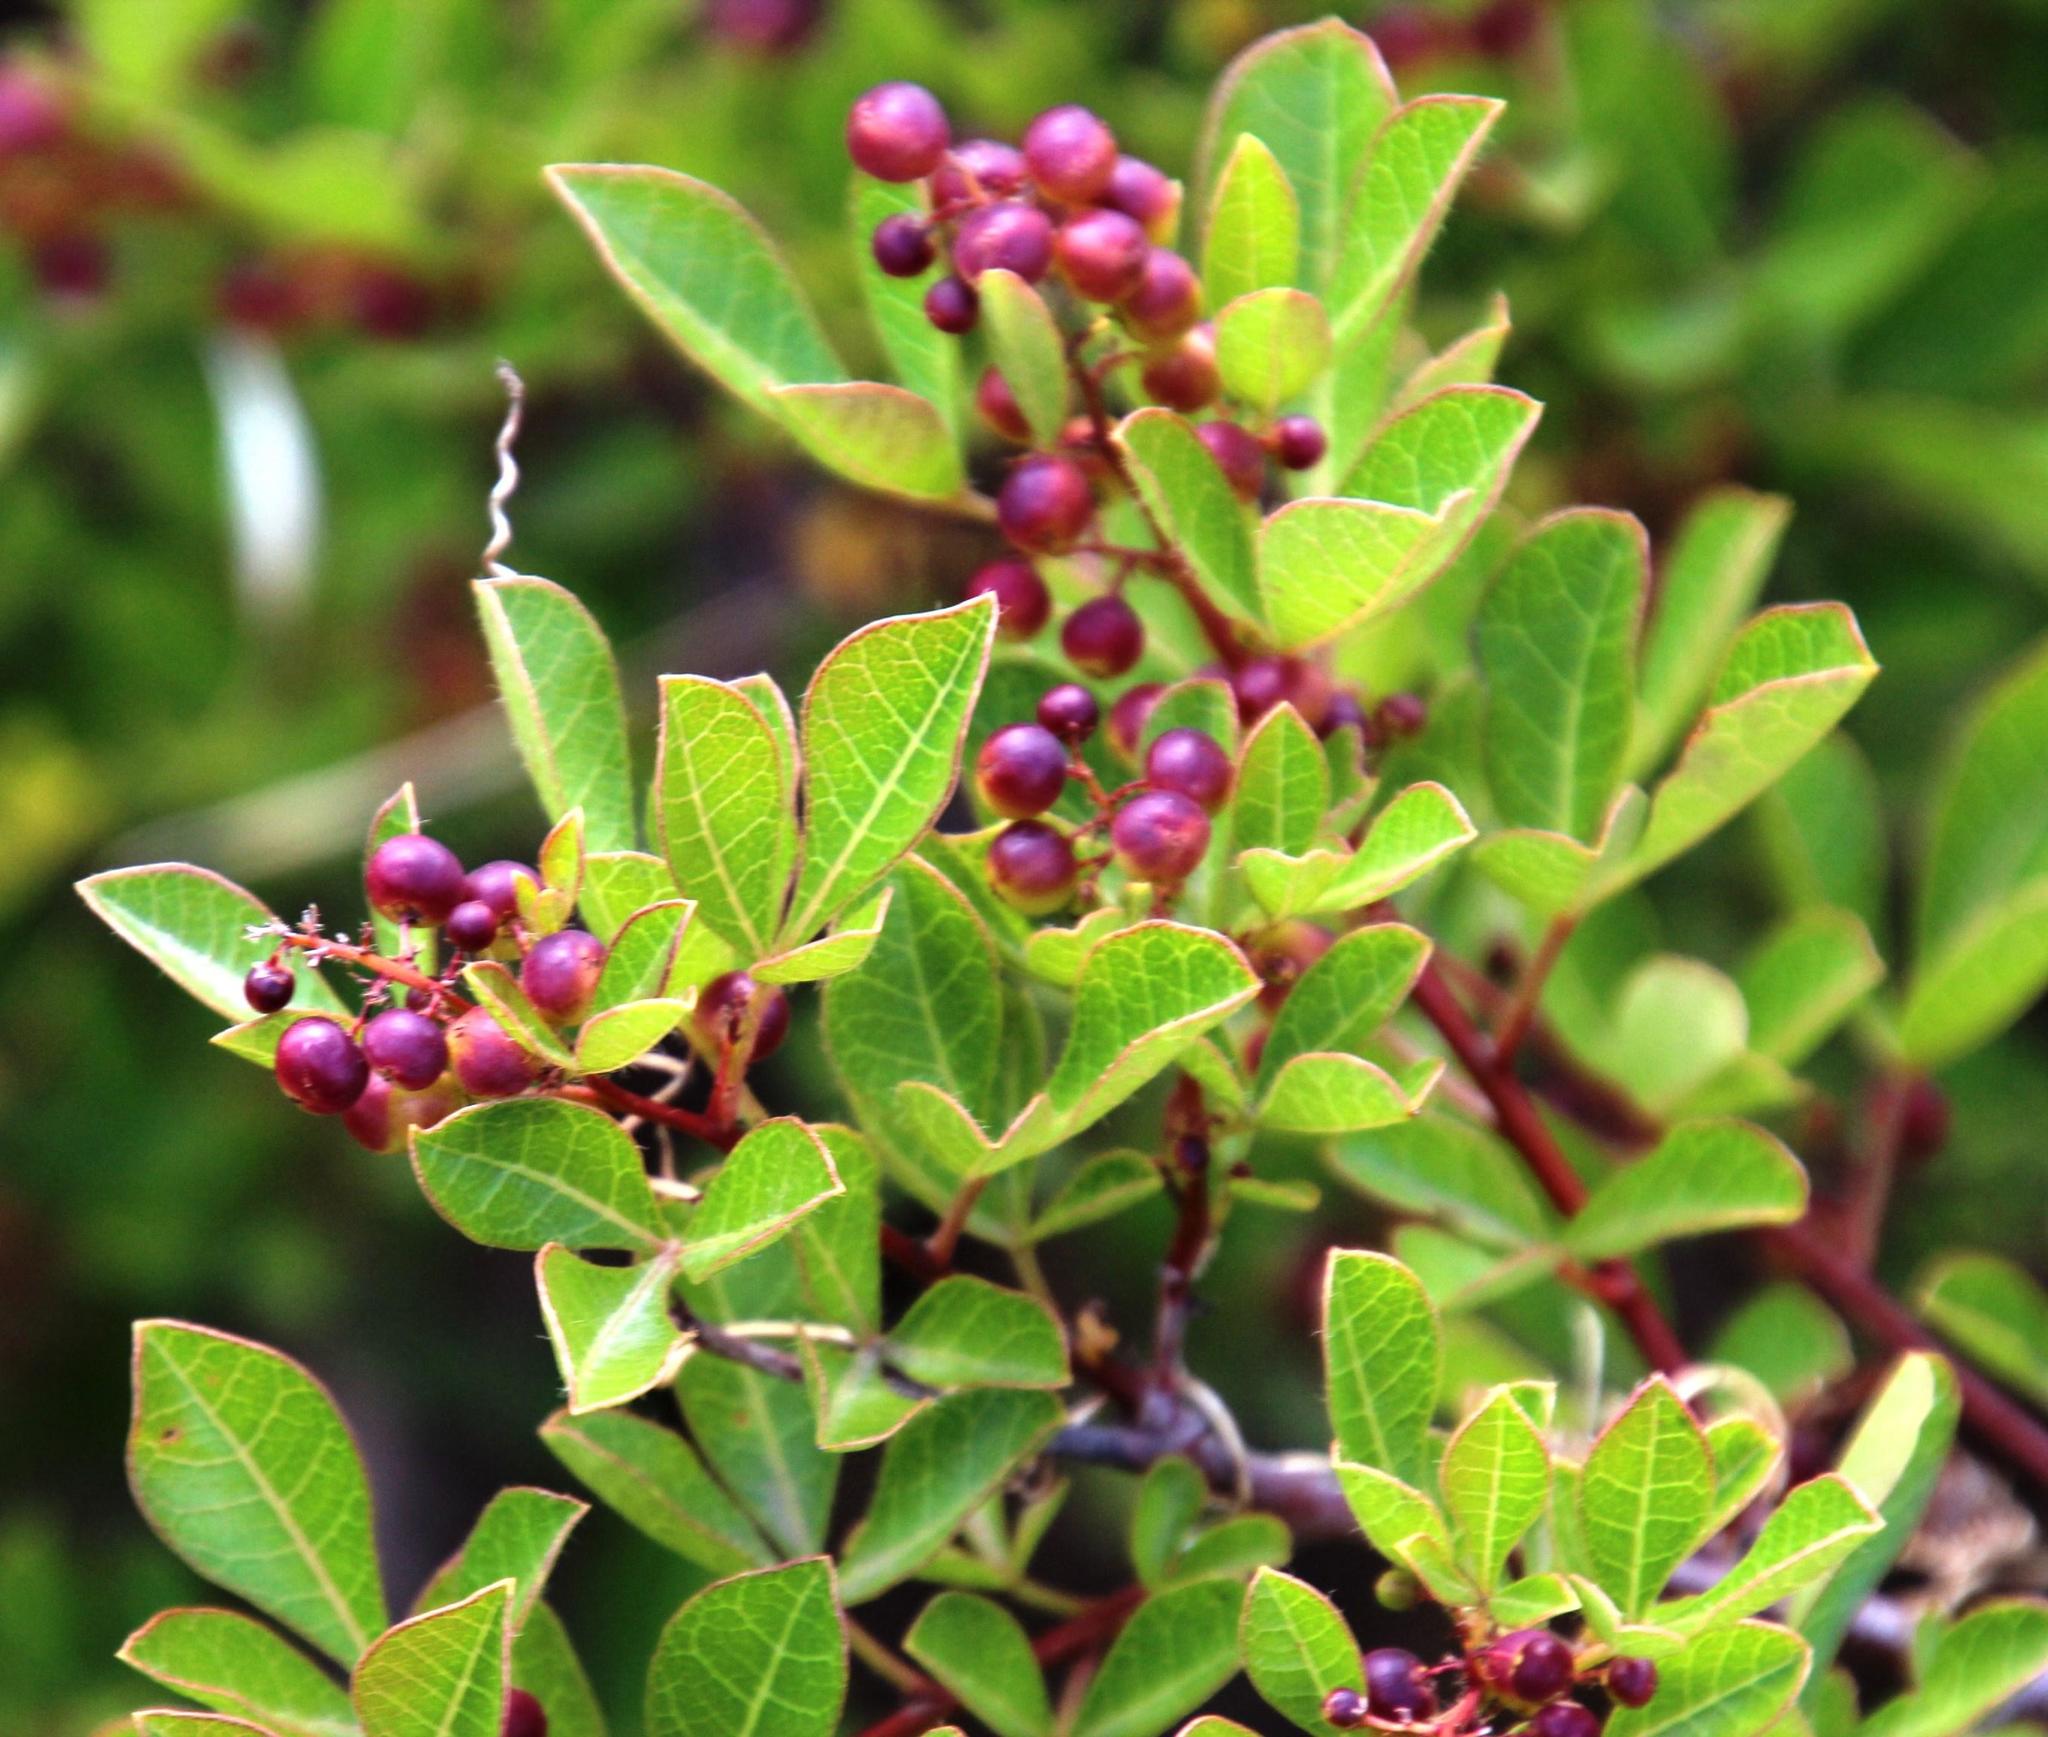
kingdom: Plantae
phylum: Tracheophyta
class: Magnoliopsida
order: Sapindales
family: Anacardiaceae
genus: Searsia
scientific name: Searsia laevigata
